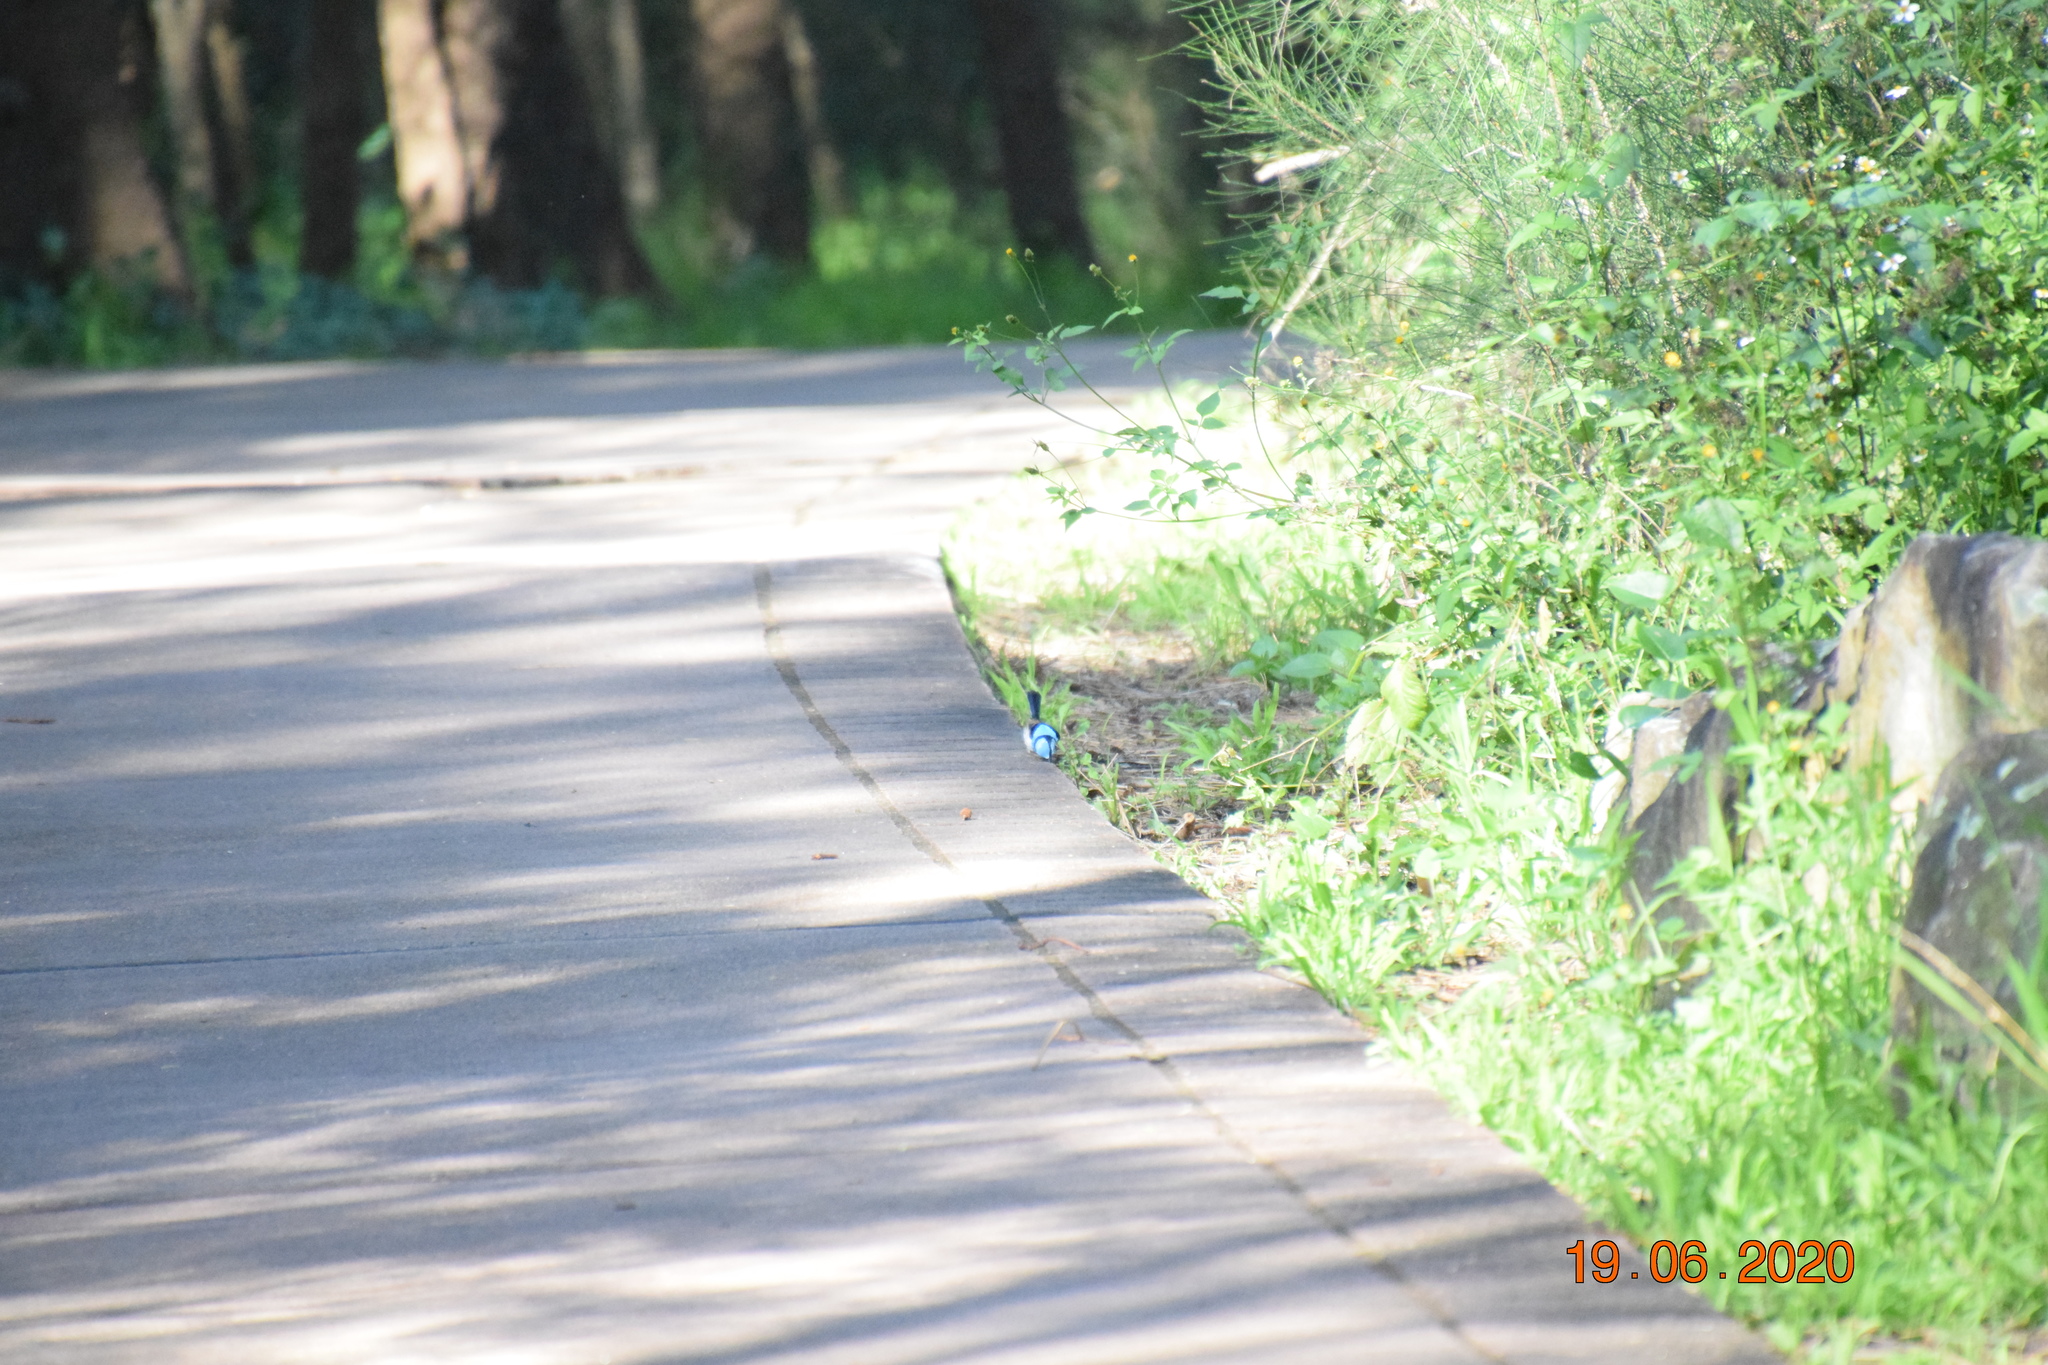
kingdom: Animalia
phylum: Chordata
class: Aves
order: Passeriformes
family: Maluridae
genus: Malurus
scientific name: Malurus cyaneus
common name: Superb fairywren
